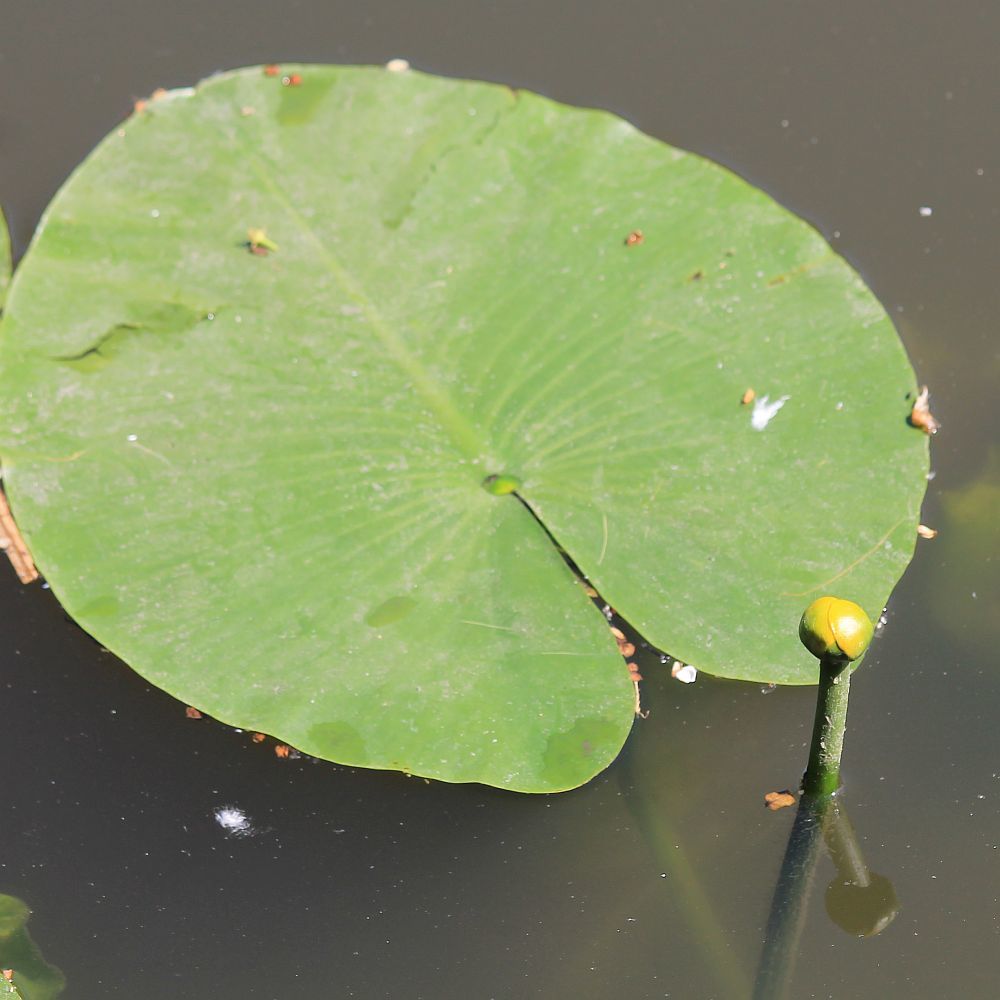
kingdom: Plantae
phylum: Tracheophyta
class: Magnoliopsida
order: Nymphaeales
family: Nymphaeaceae
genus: Nuphar
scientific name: Nuphar lutea
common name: Yellow water-lily
